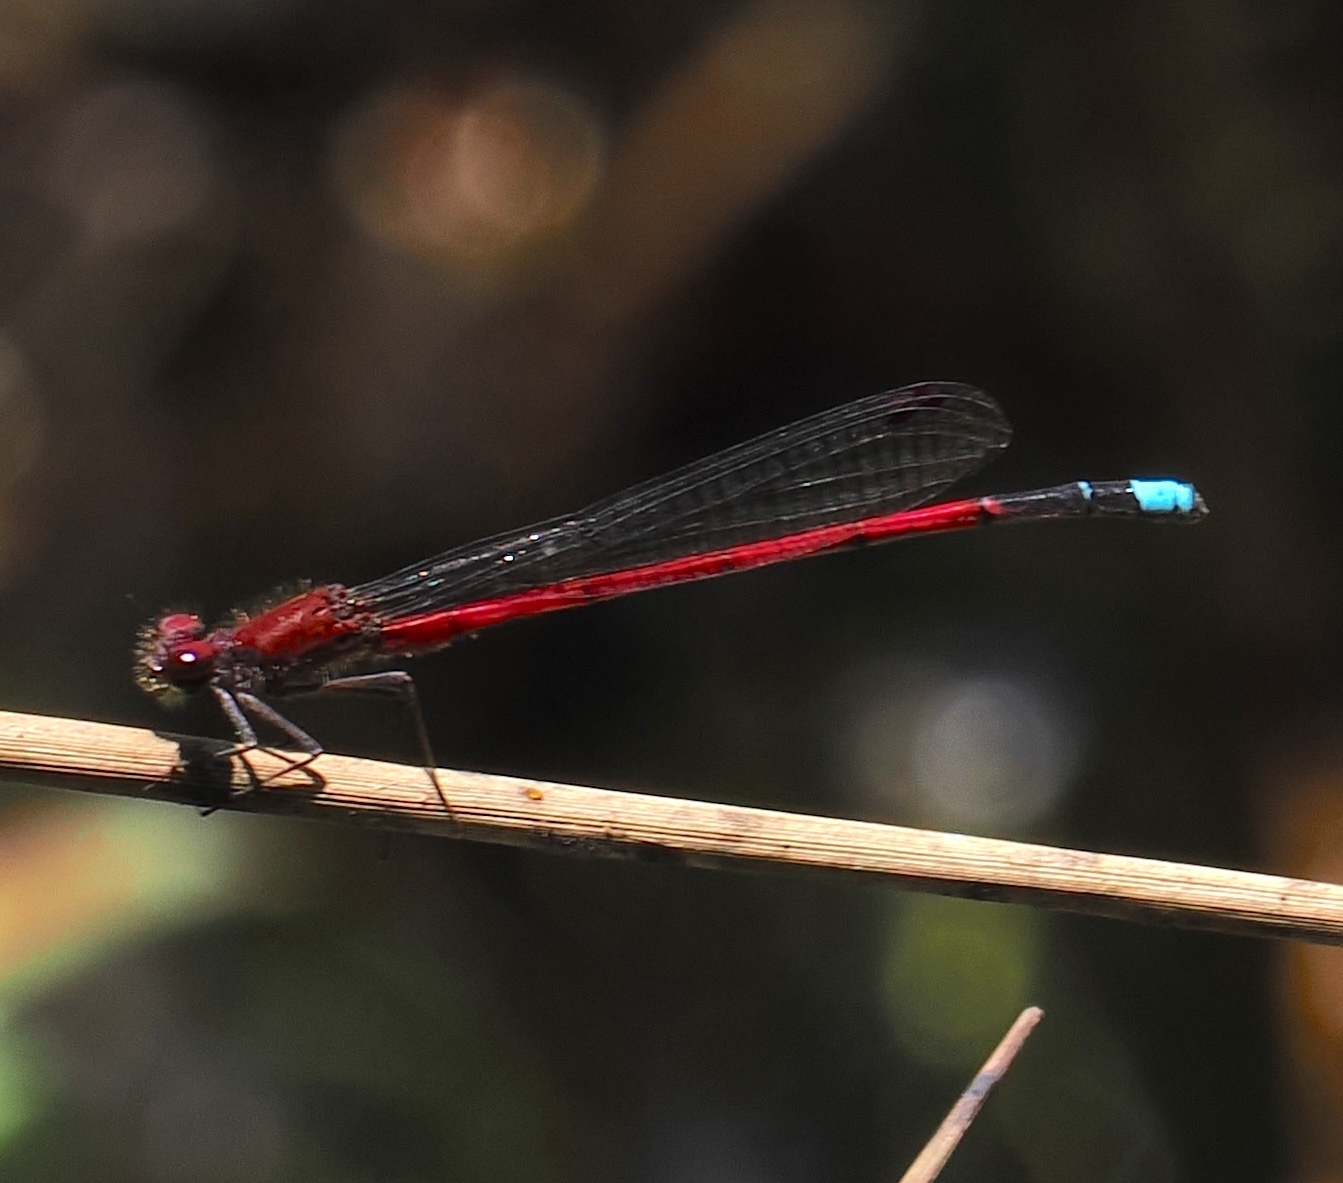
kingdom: Animalia
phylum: Arthropoda
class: Insecta
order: Odonata
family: Coenagrionidae
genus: Oxyagrion
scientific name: Oxyagrion simile
